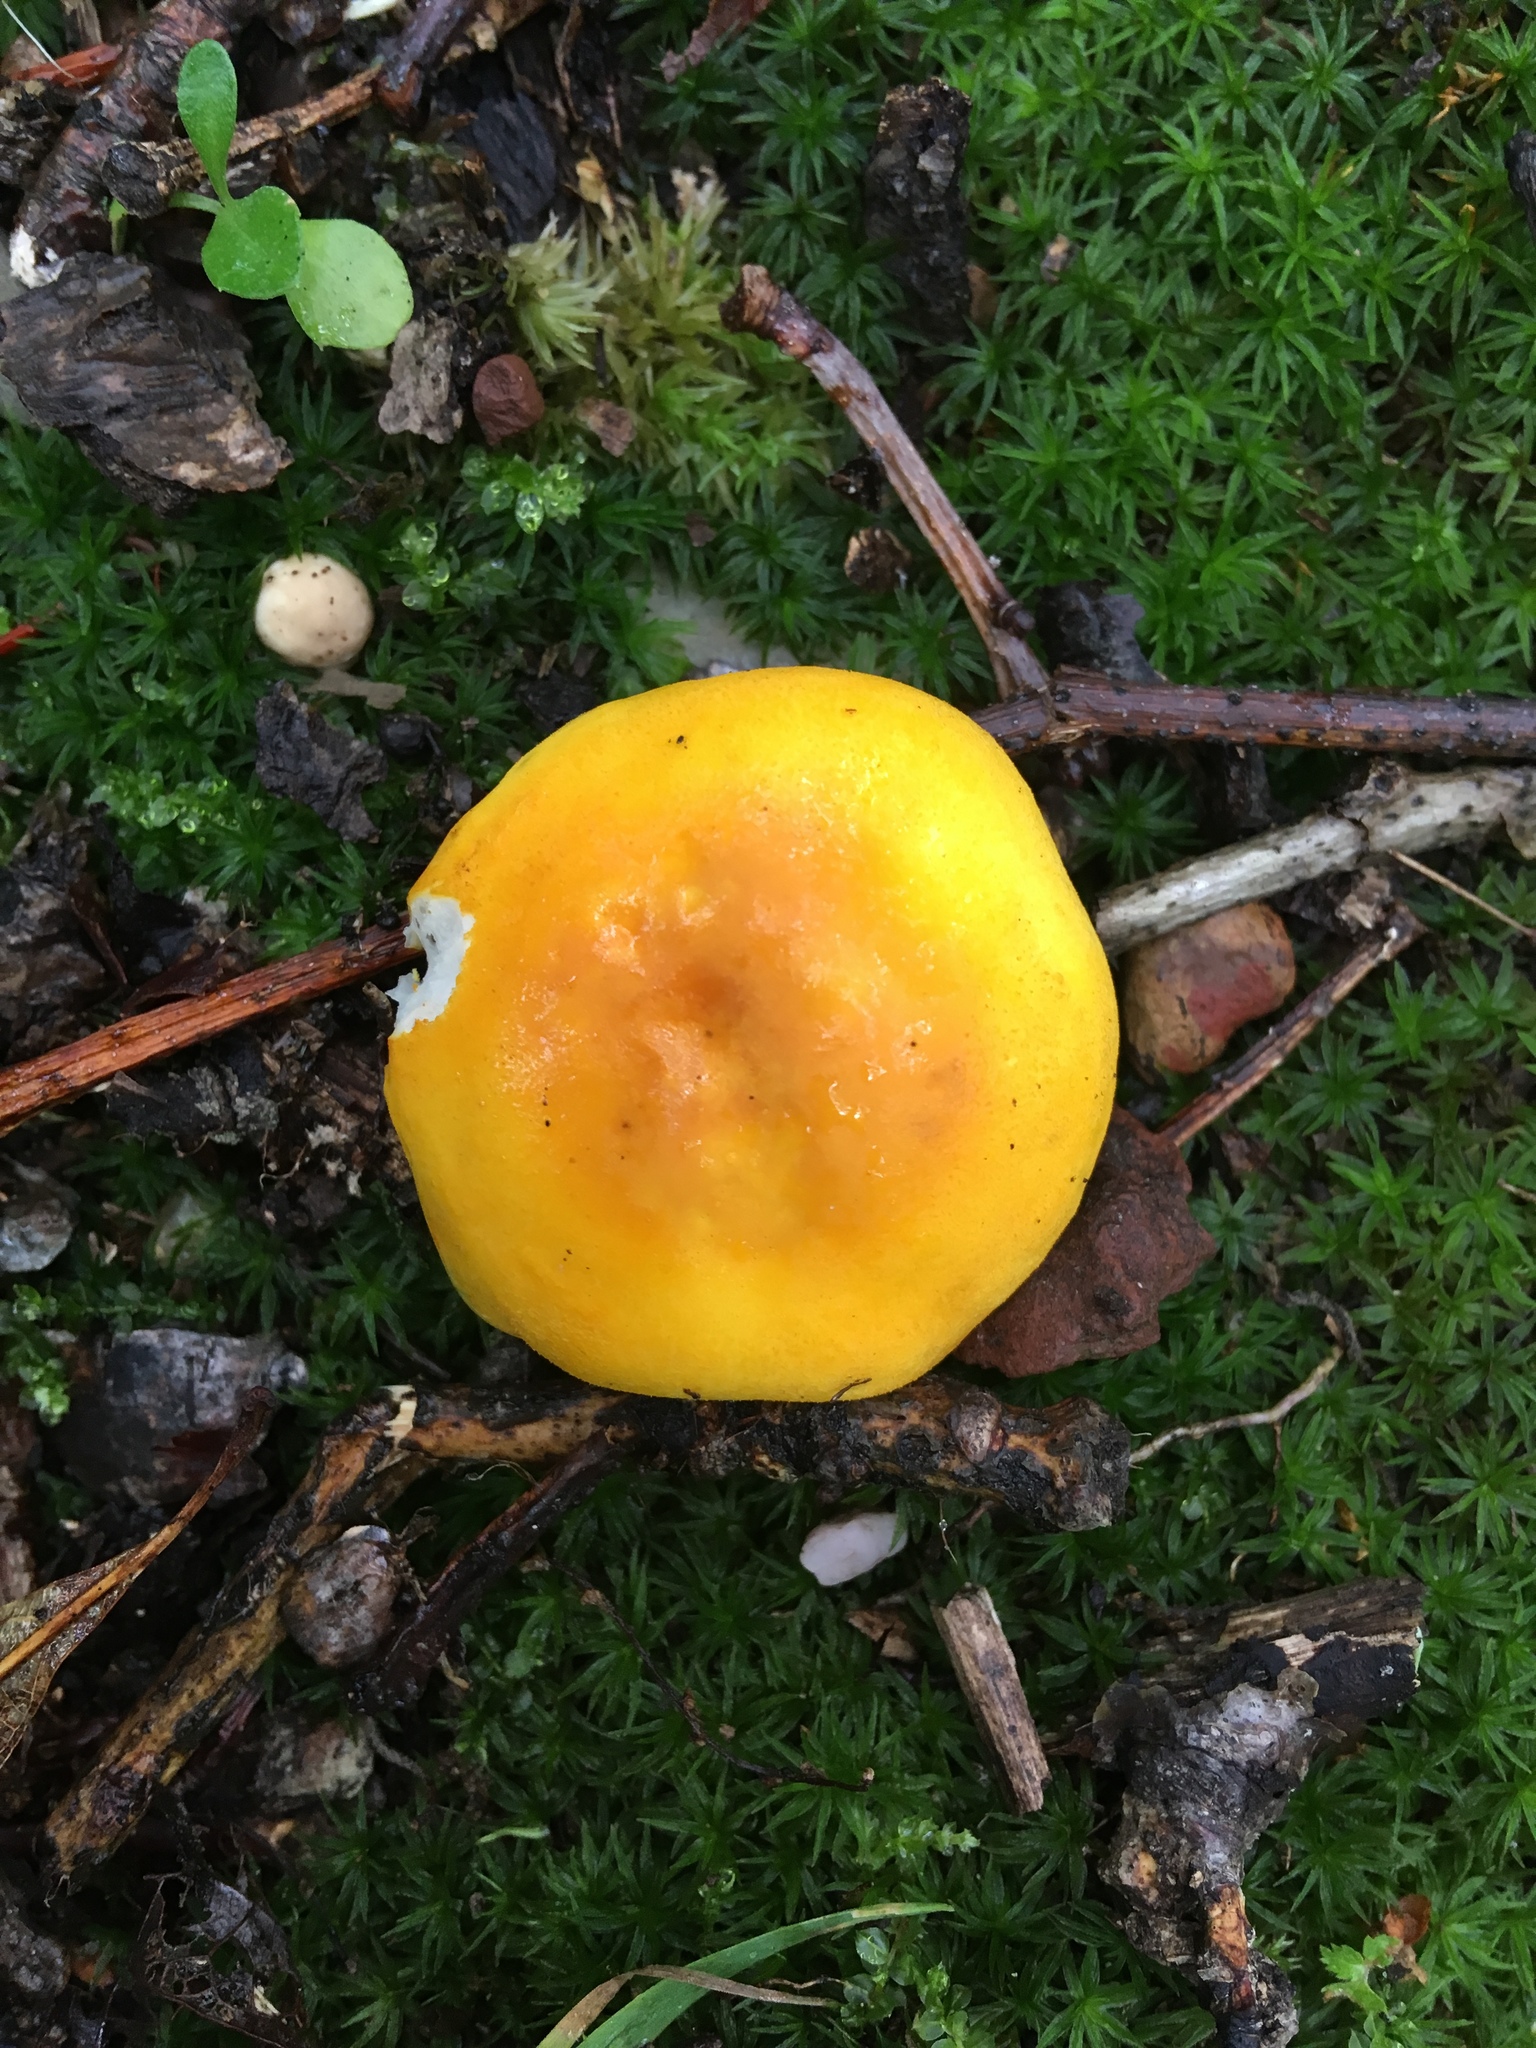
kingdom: Fungi
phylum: Basidiomycota
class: Agaricomycetes
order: Russulales
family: Russulaceae
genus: Russula
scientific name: Russula flavida
